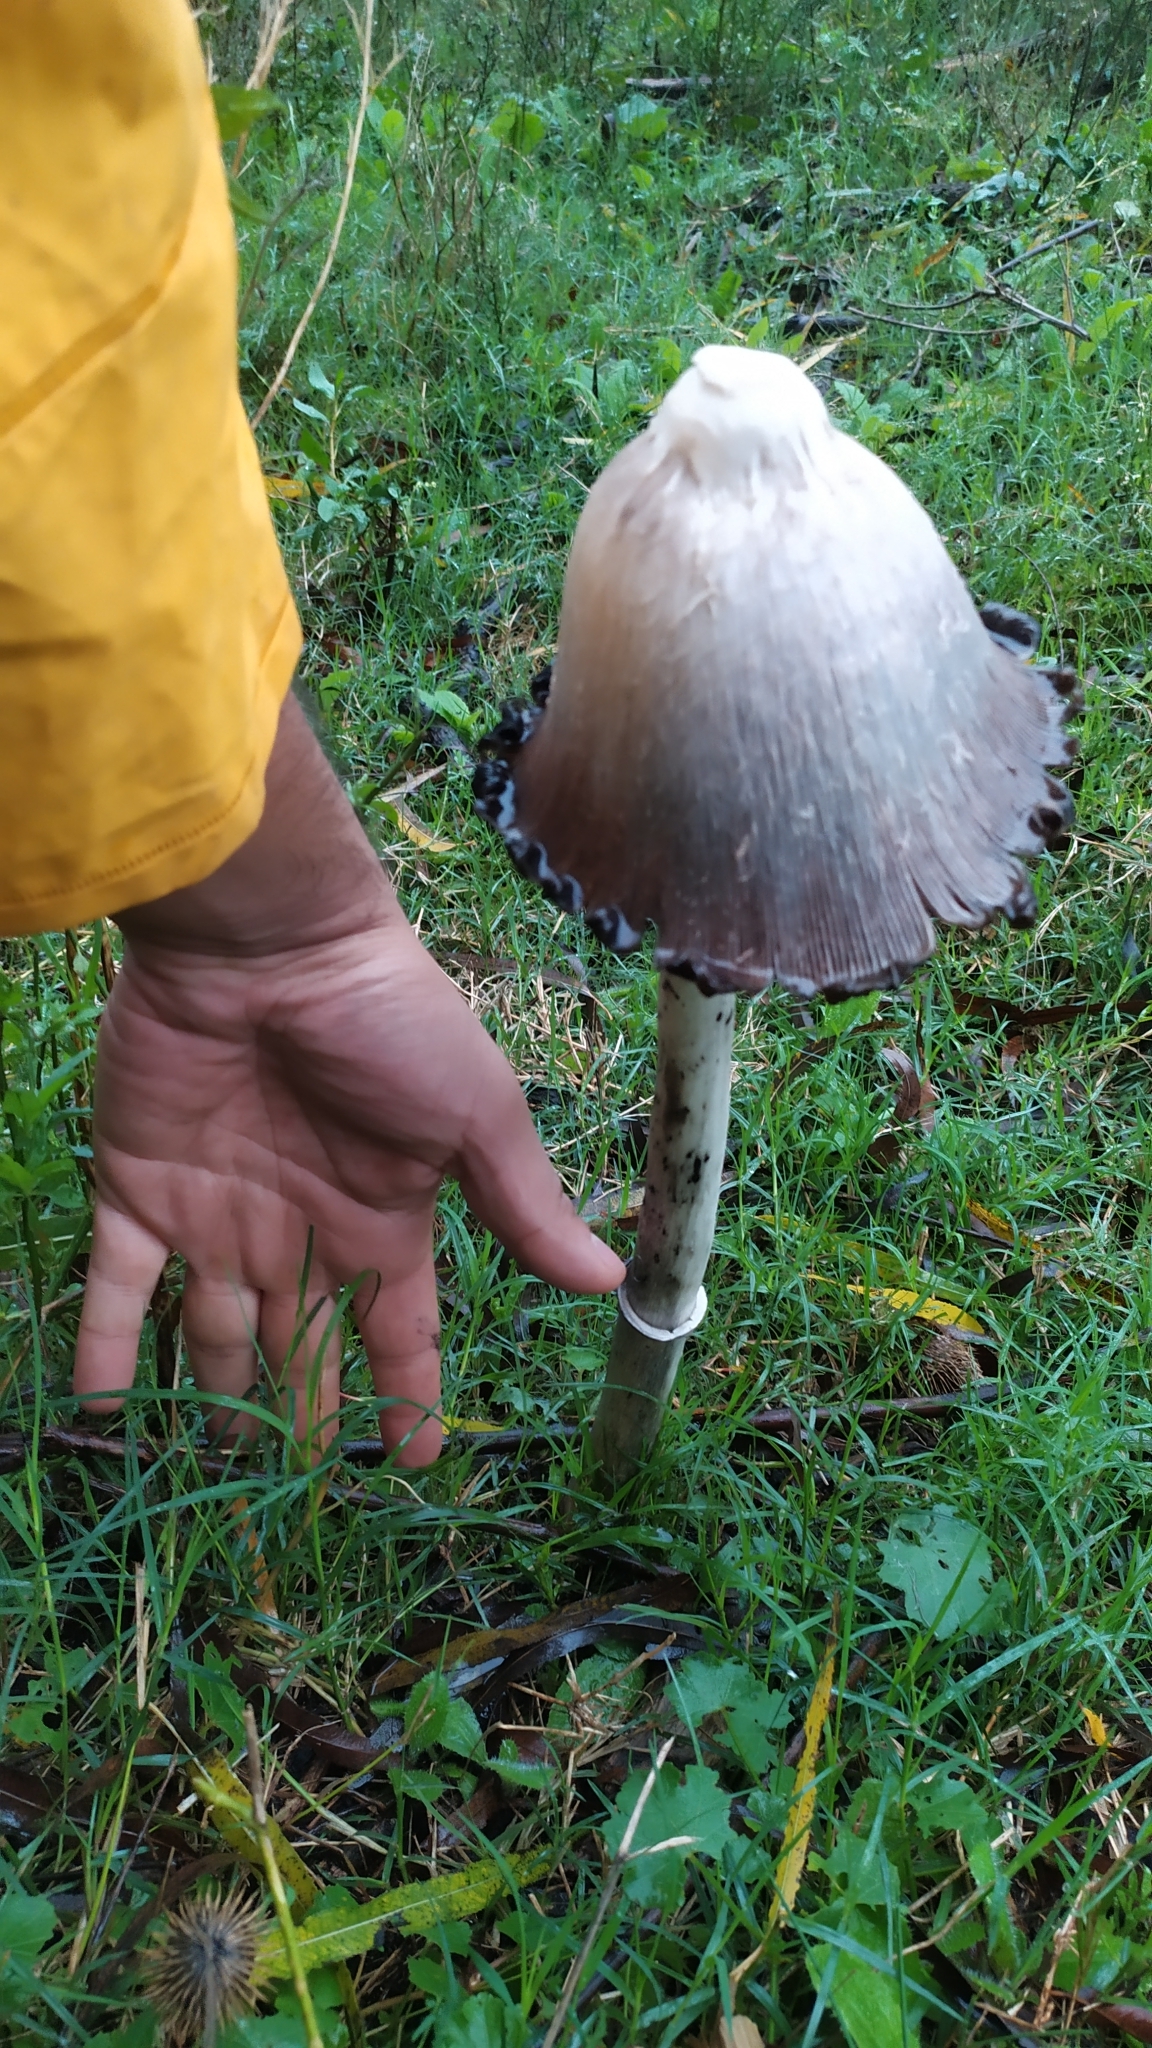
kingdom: Fungi
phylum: Basidiomycota
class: Agaricomycetes
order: Agaricales
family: Agaricaceae
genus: Coprinus
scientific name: Coprinus comatus
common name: Lawyer's wig
